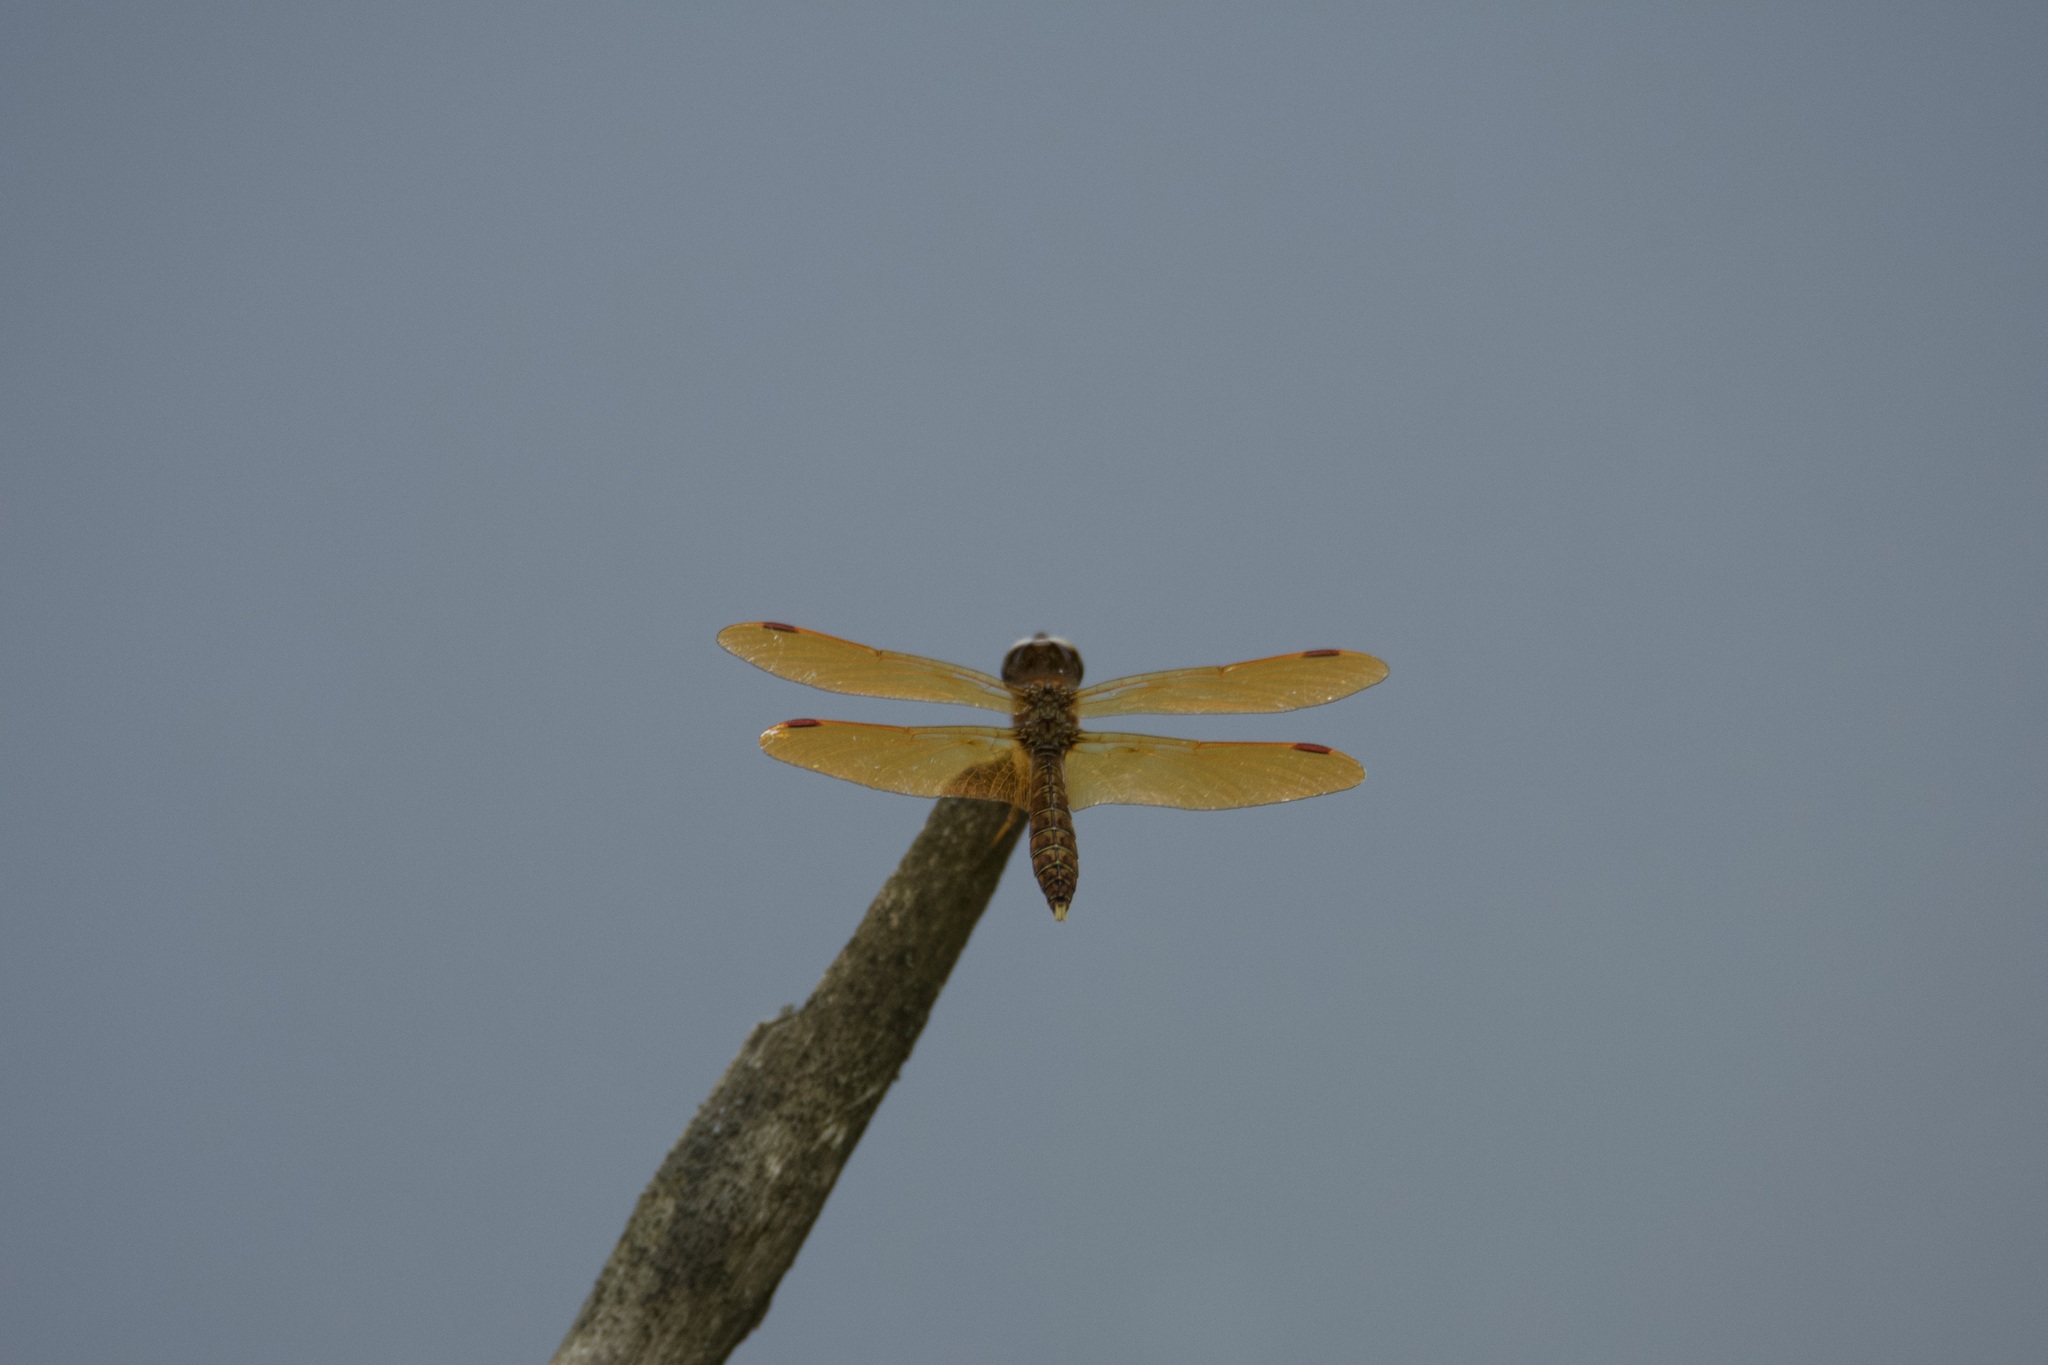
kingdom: Animalia
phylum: Arthropoda
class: Insecta
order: Odonata
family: Libellulidae
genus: Perithemis
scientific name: Perithemis tenera
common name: Eastern amberwing
